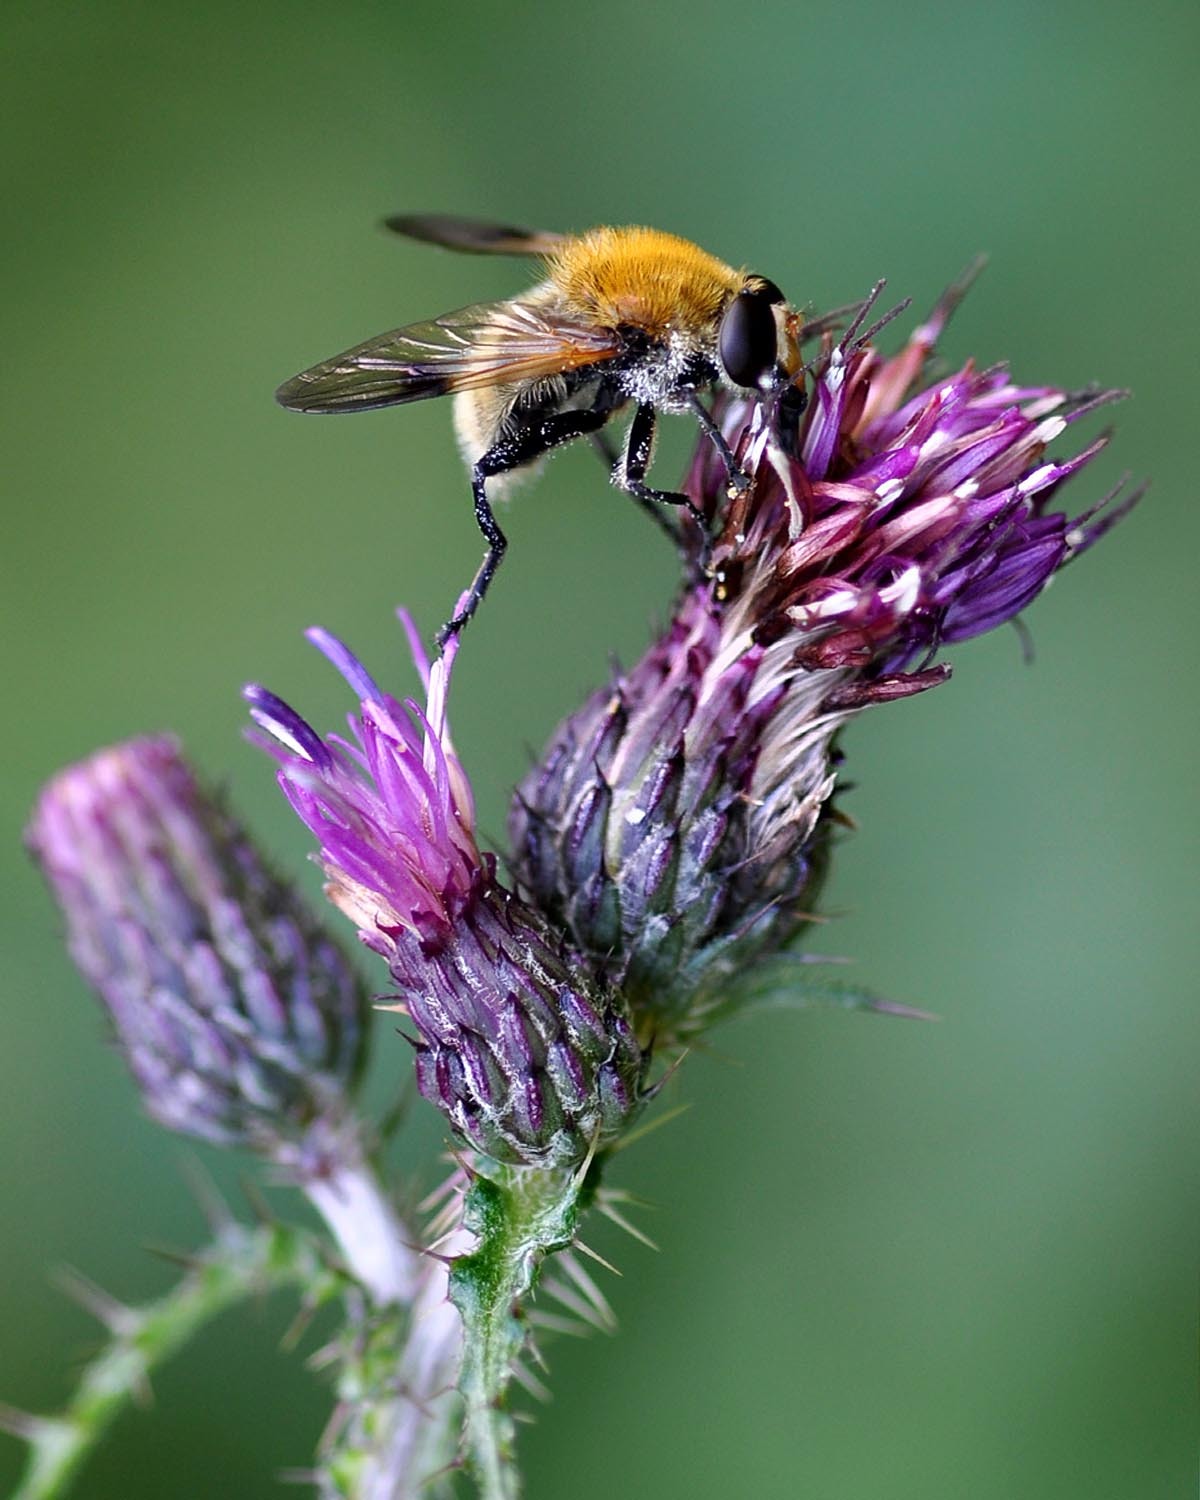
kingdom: Animalia
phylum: Arthropoda
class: Insecta
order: Diptera
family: Syrphidae
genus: Sericomyia
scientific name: Sericomyia superbiens
